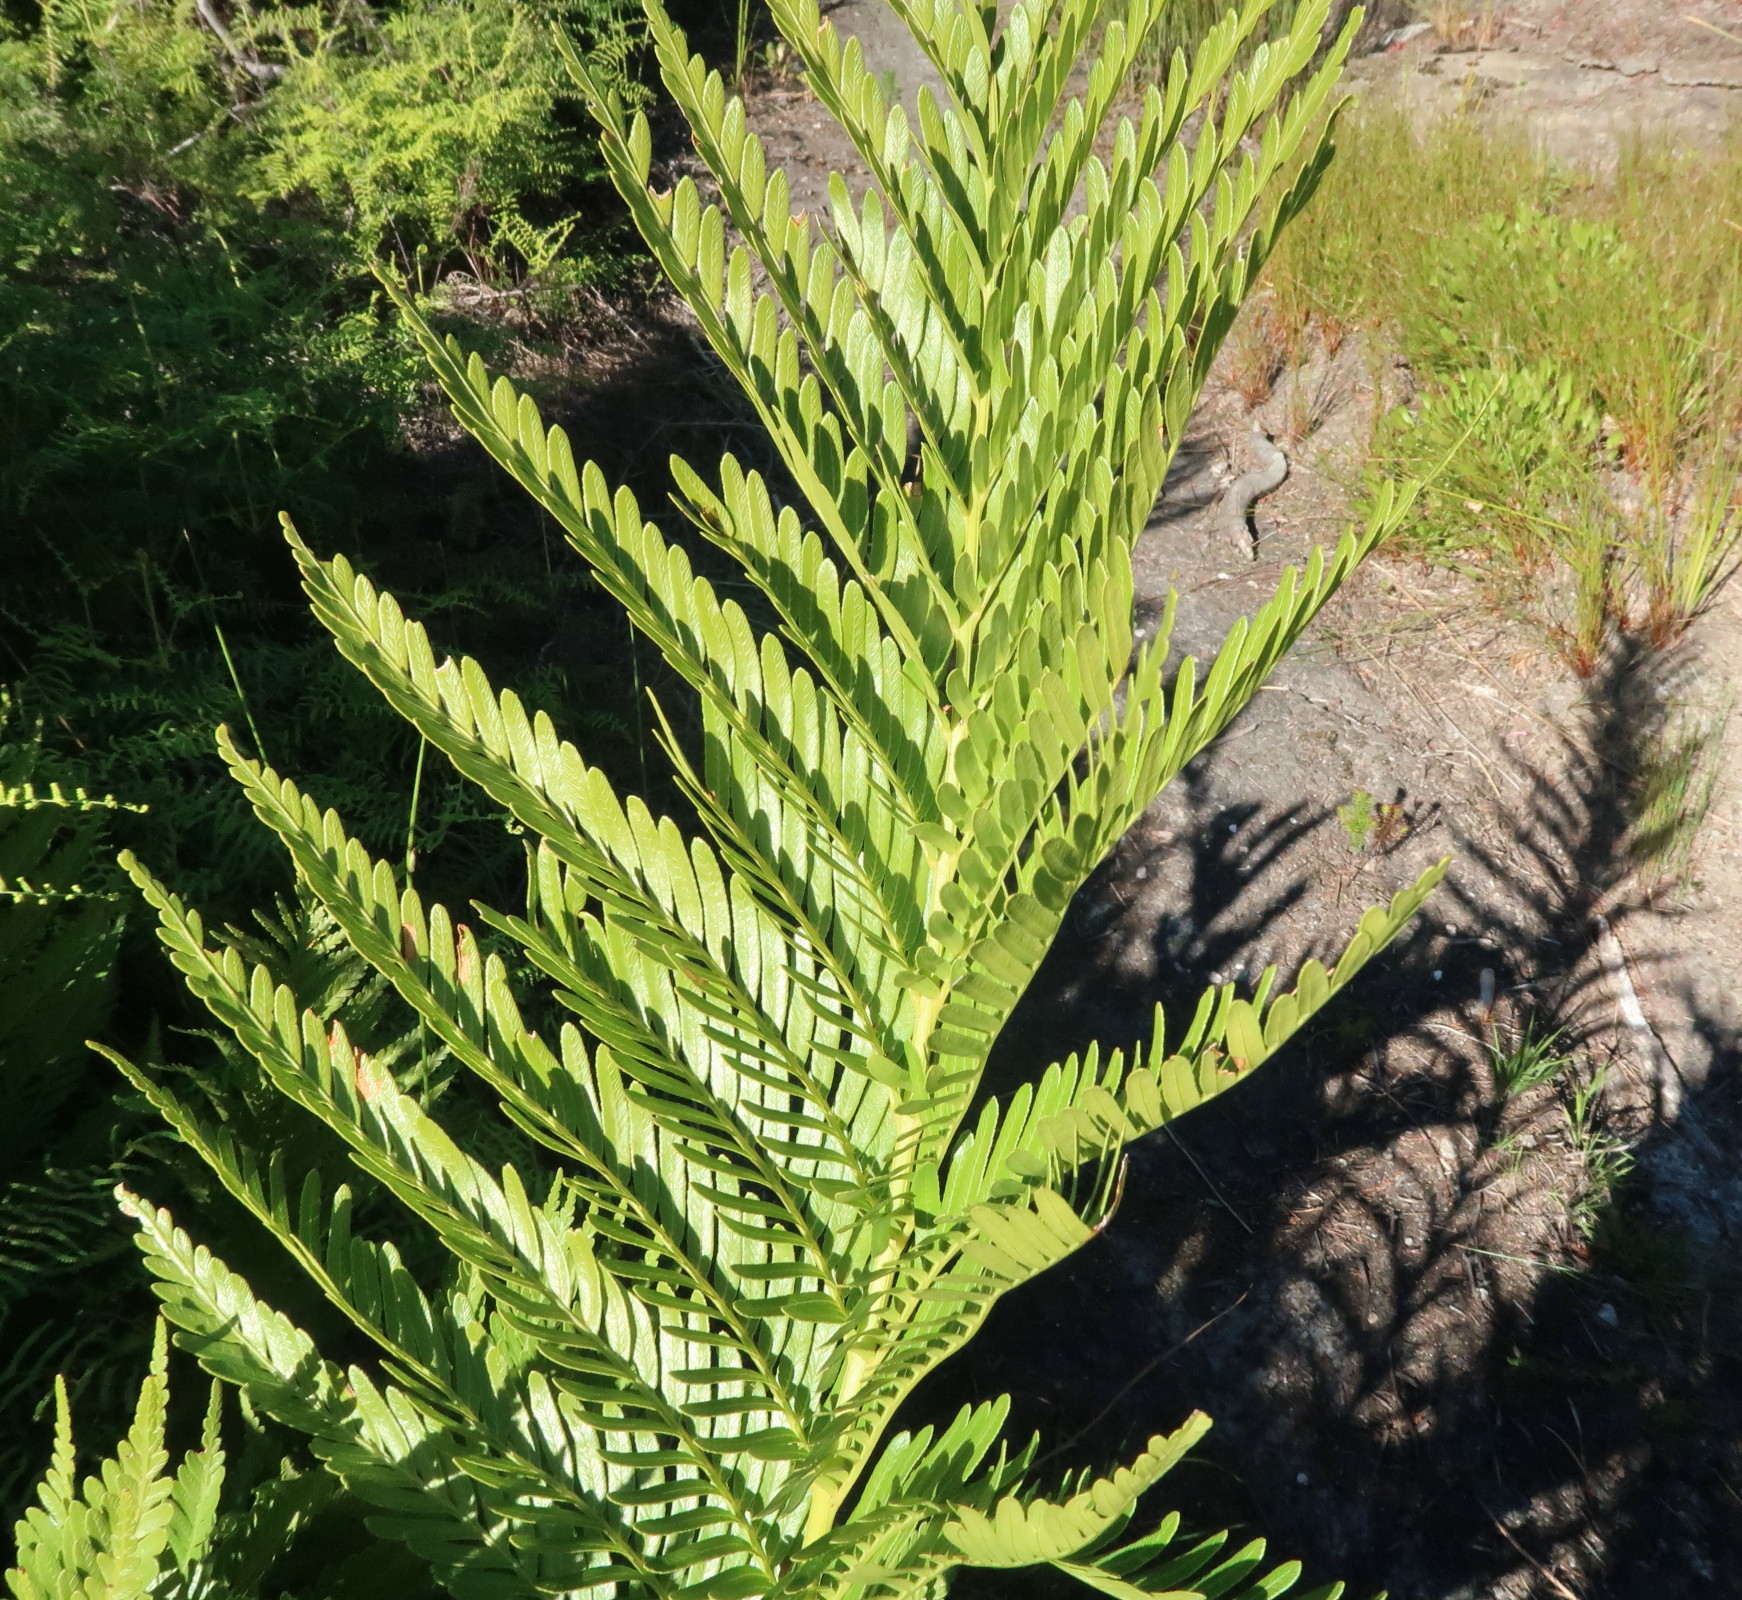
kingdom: Plantae
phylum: Tracheophyta
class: Polypodiopsida
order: Osmundales
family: Osmundaceae
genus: Todea
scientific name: Todea barbara
